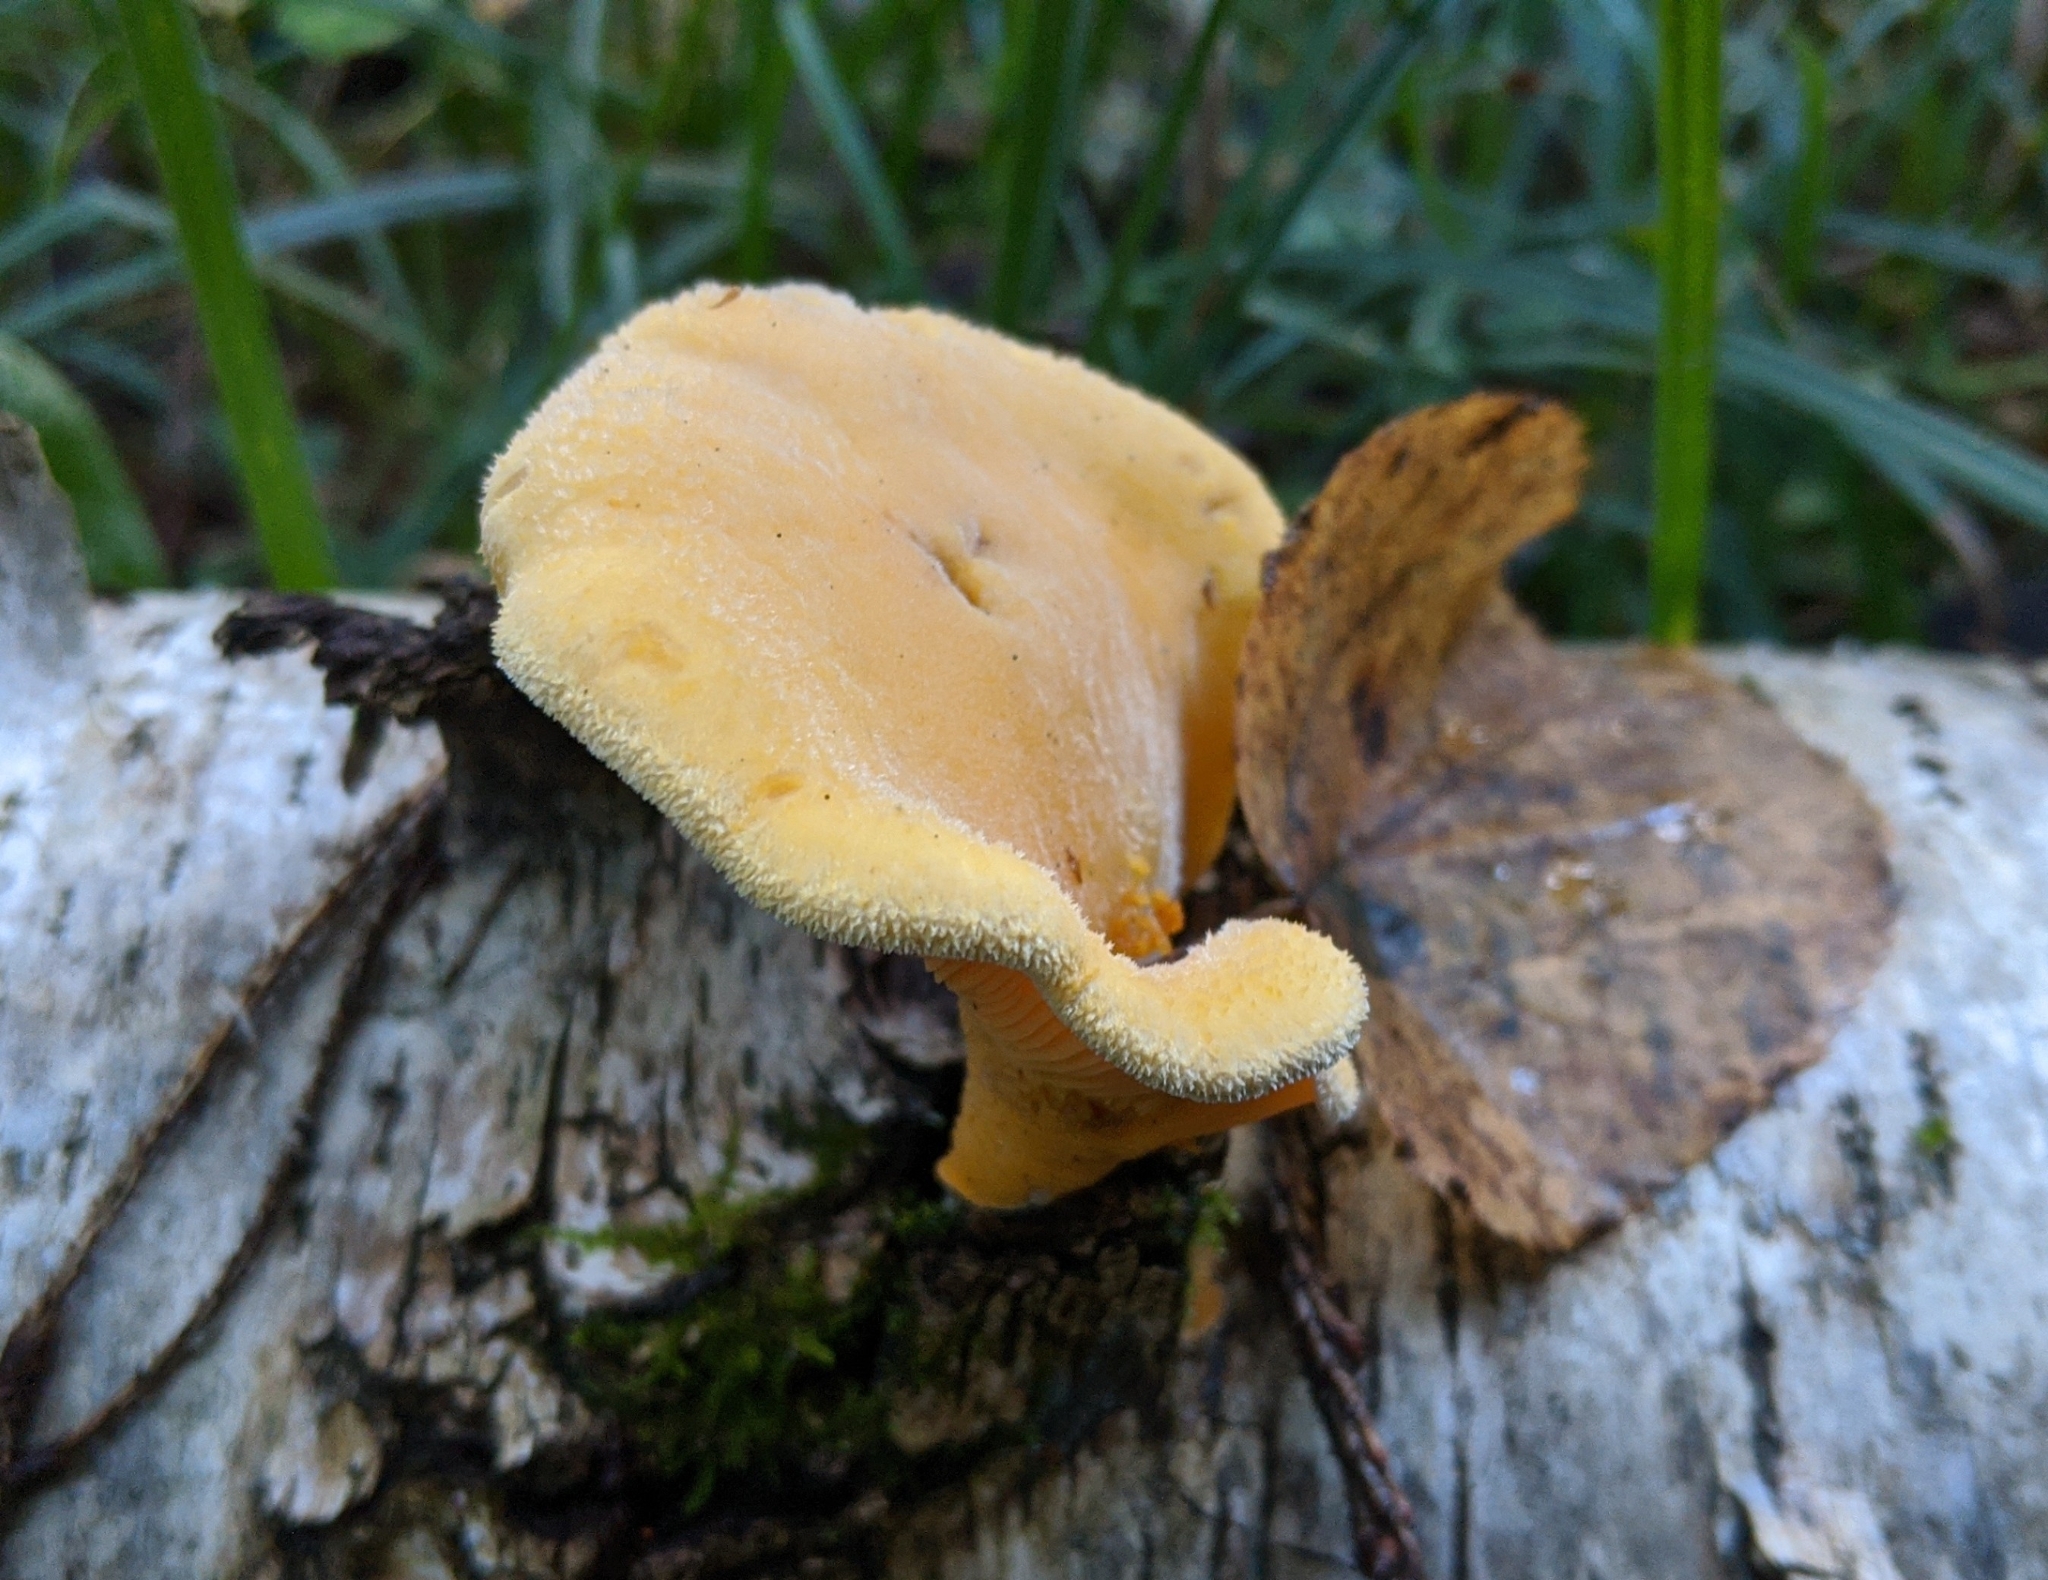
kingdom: Fungi
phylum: Basidiomycota
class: Agaricomycetes
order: Agaricales
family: Phyllotopsidaceae
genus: Phyllotopsis
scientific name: Phyllotopsis nidulans
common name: Orange mock oyster
